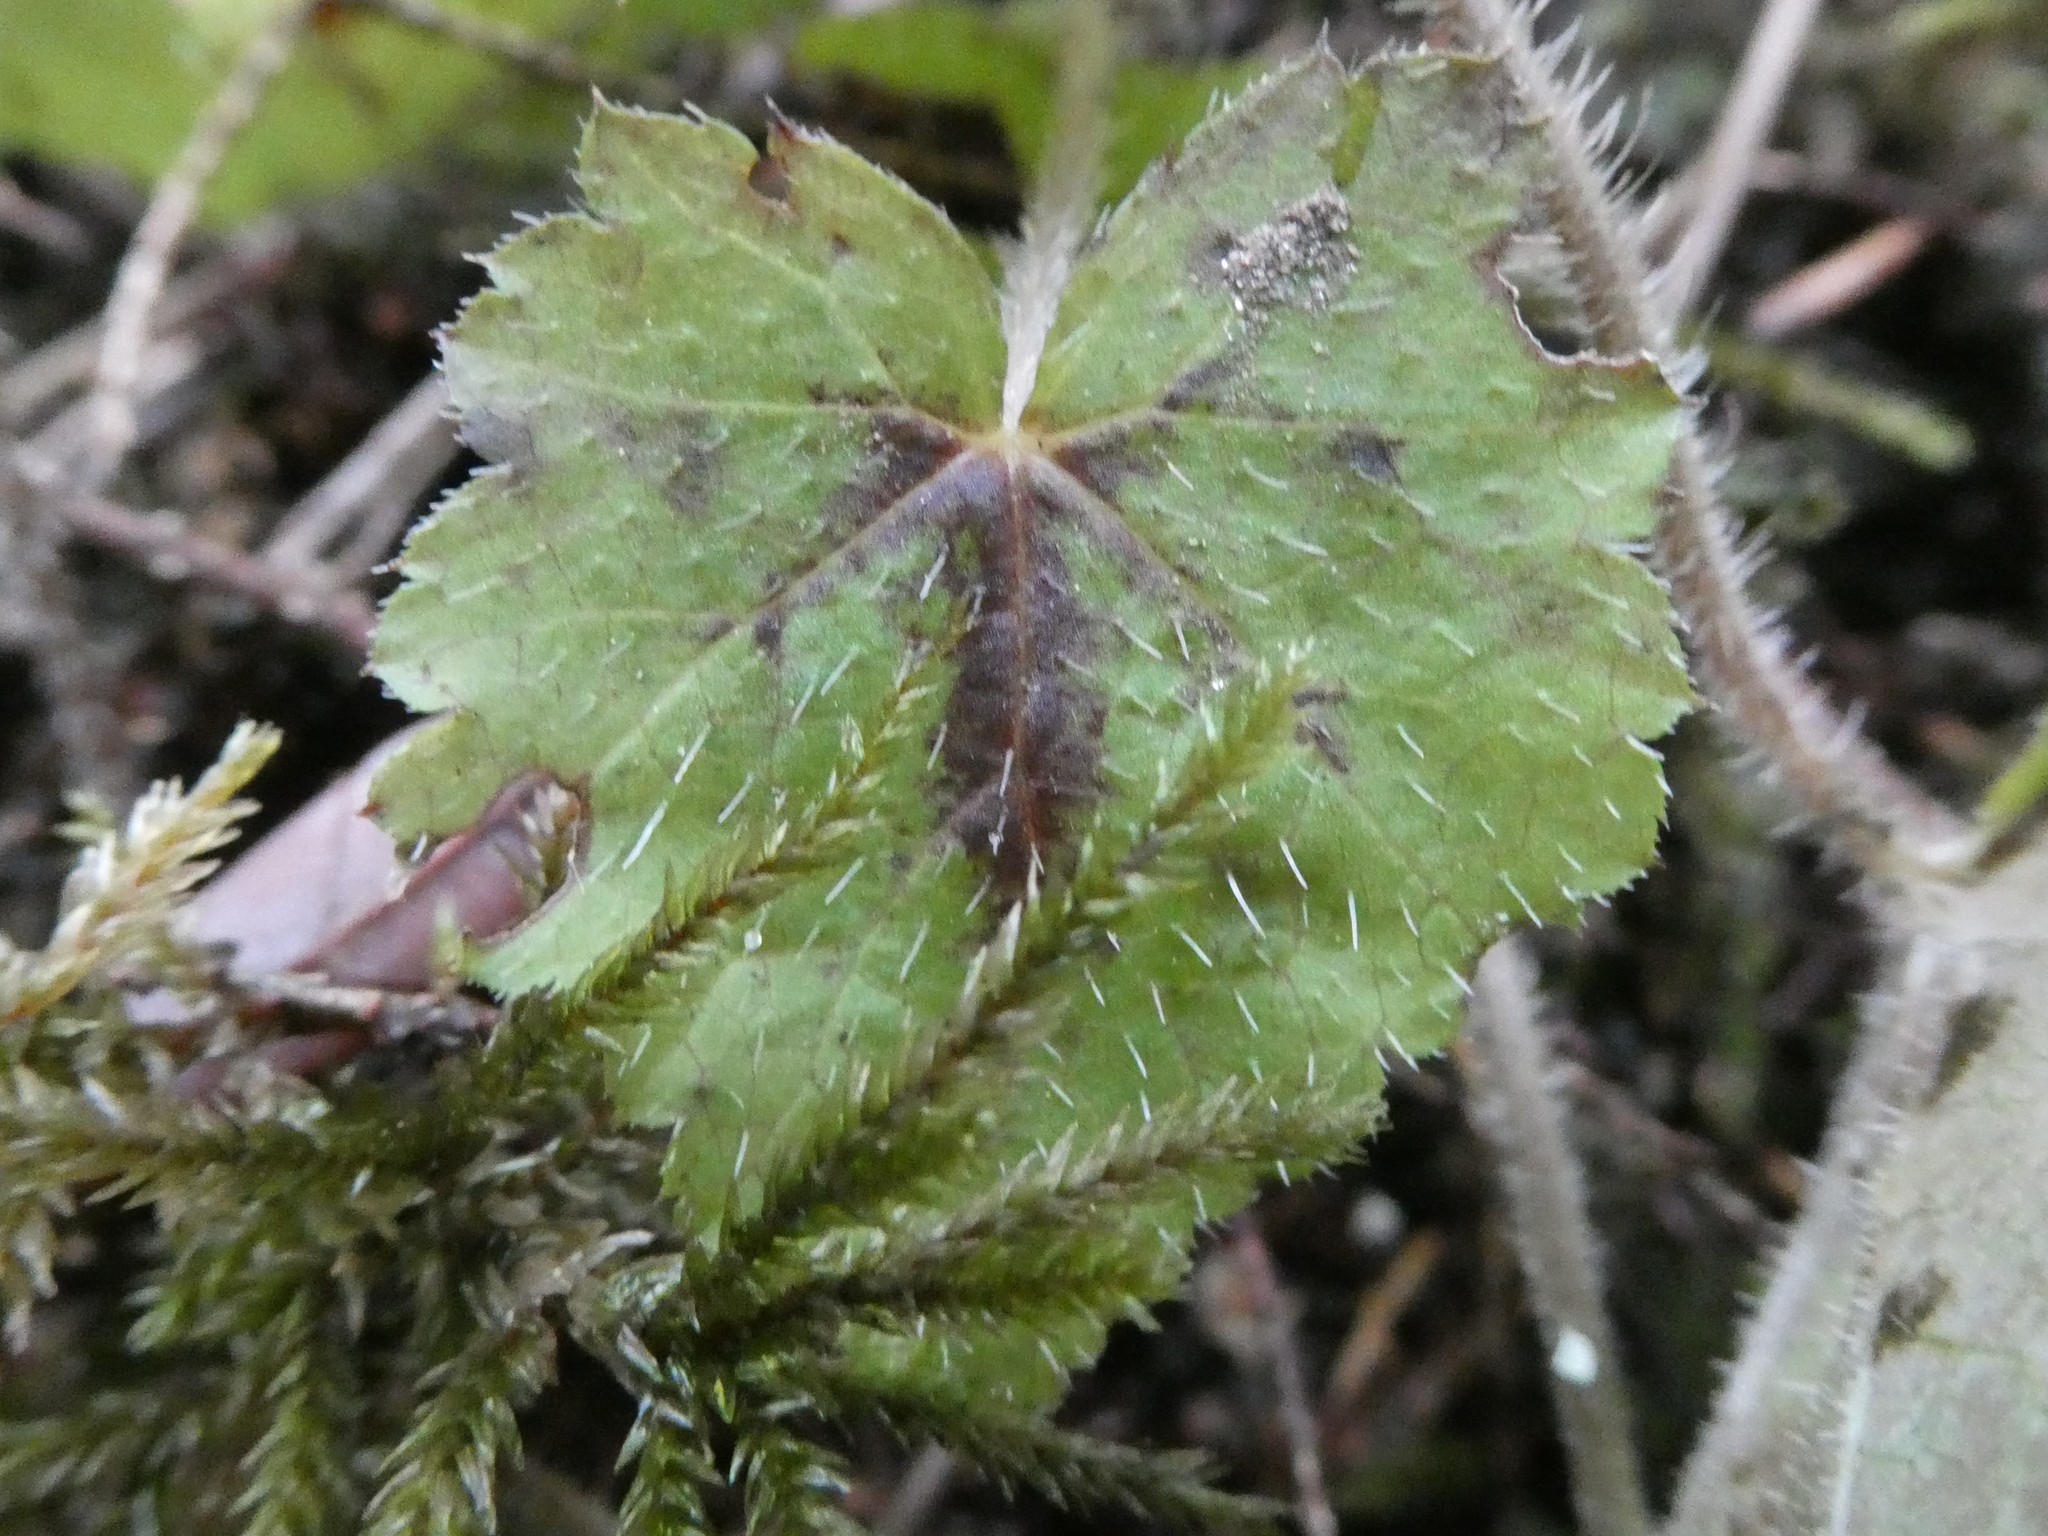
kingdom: Plantae
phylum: Tracheophyta
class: Magnoliopsida
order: Saxifragales
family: Saxifragaceae
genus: Tiarella
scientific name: Tiarella stolonifera
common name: Stoloniferous foamflower
